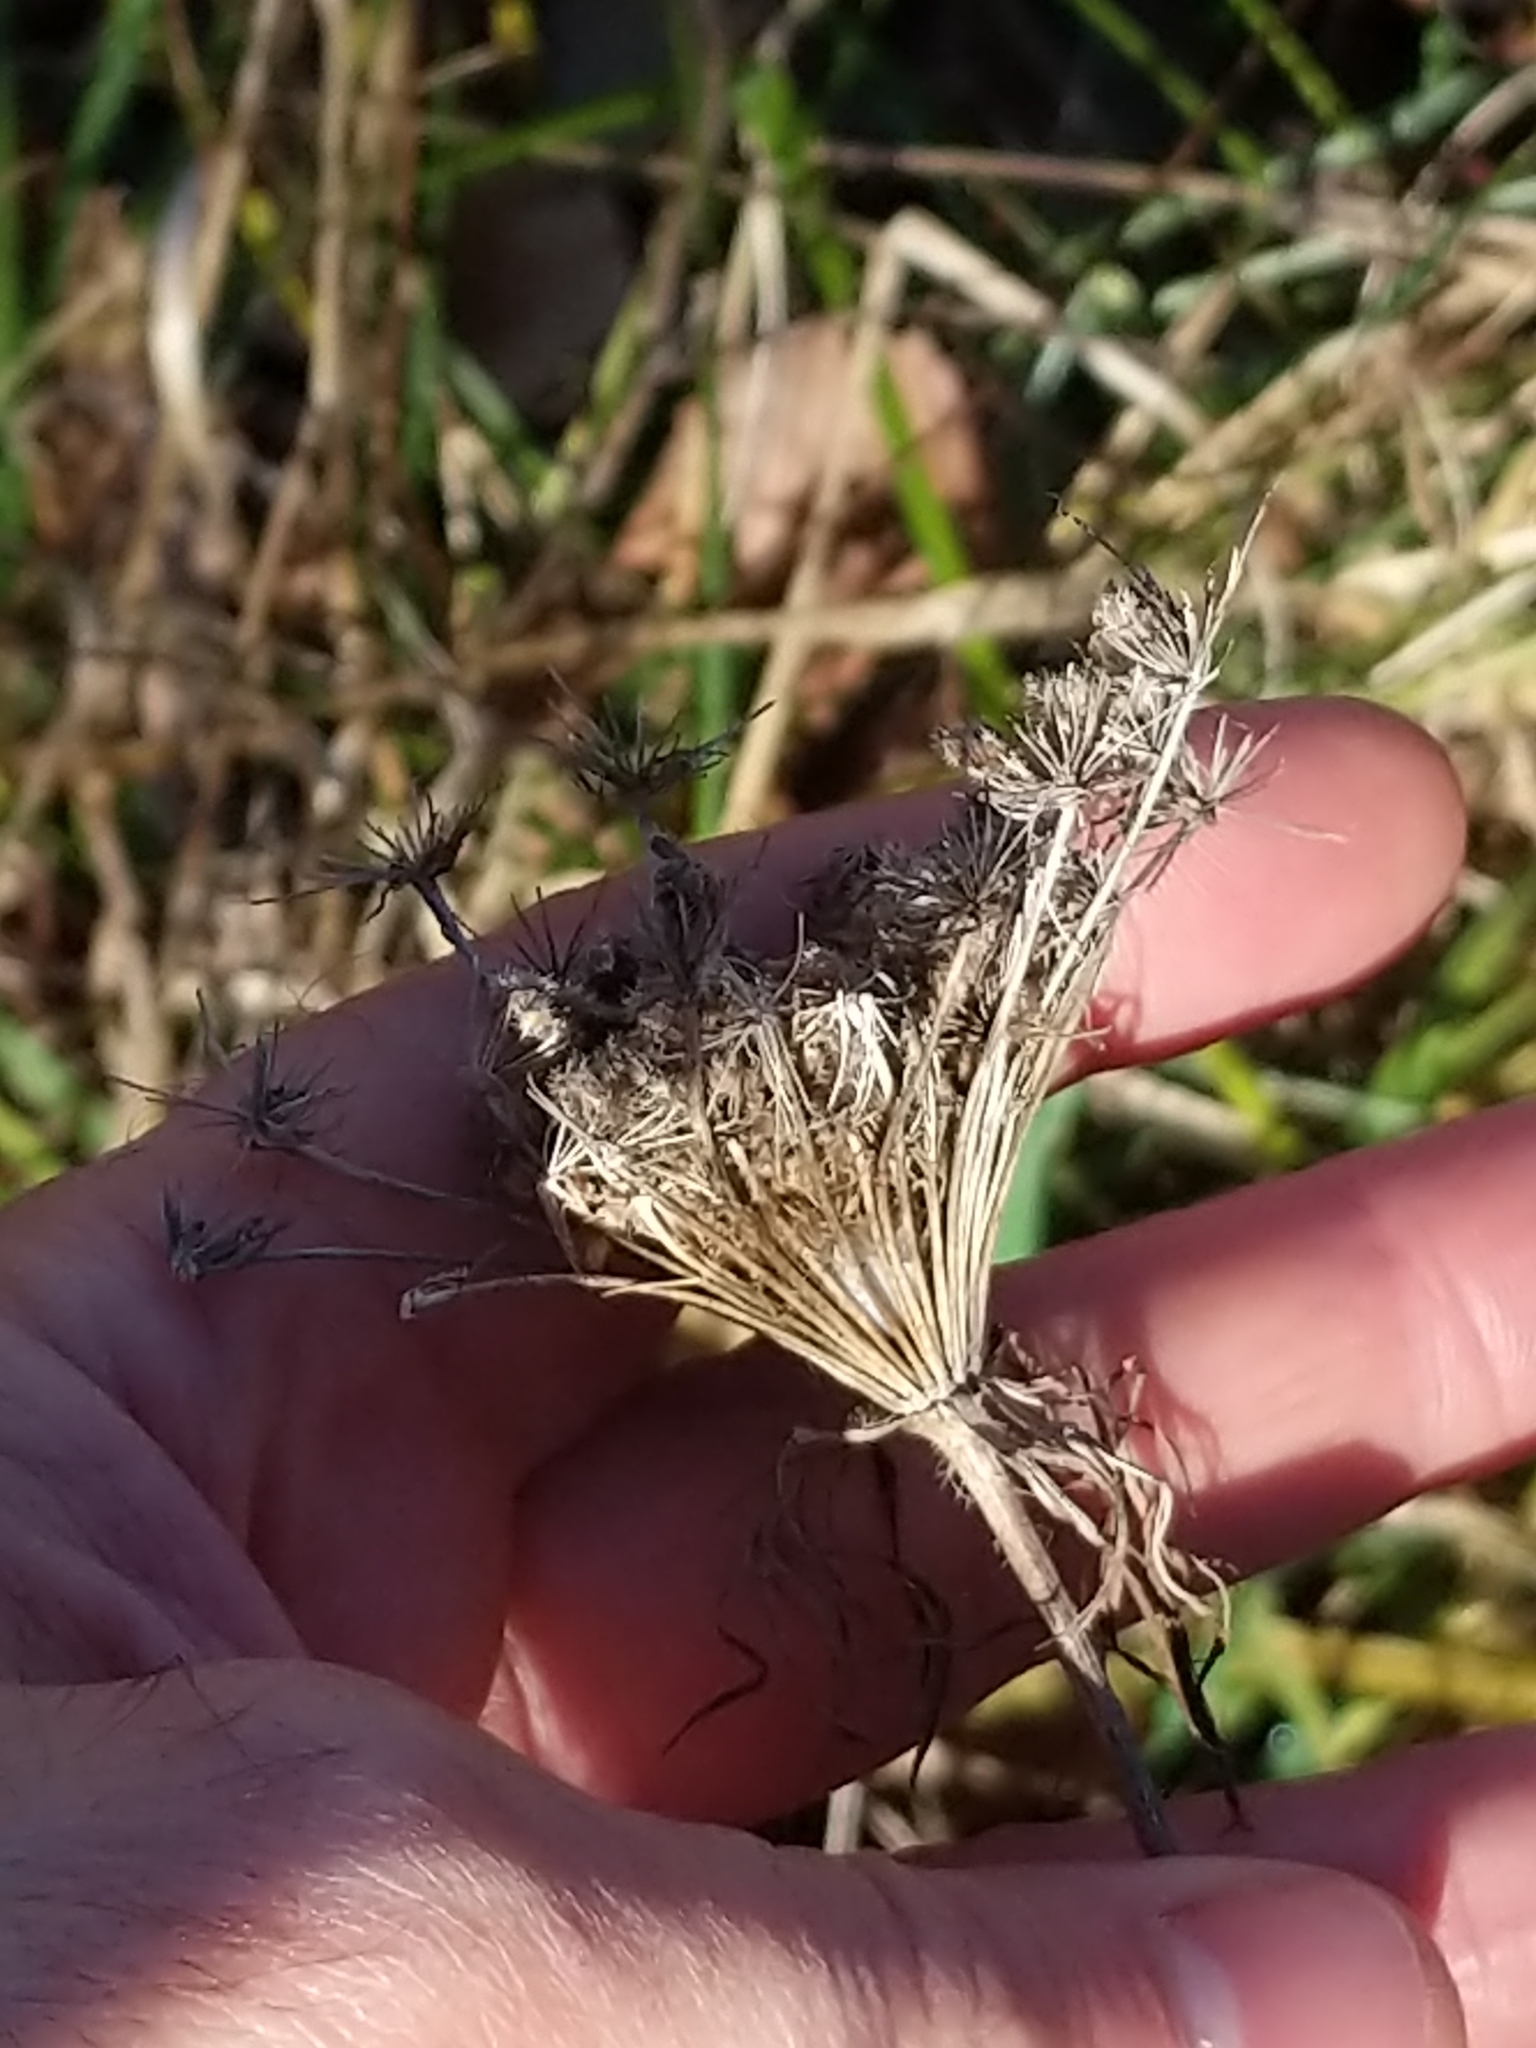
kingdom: Plantae
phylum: Tracheophyta
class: Magnoliopsida
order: Apiales
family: Apiaceae
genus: Daucus
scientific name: Daucus carota
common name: Wild carrot
